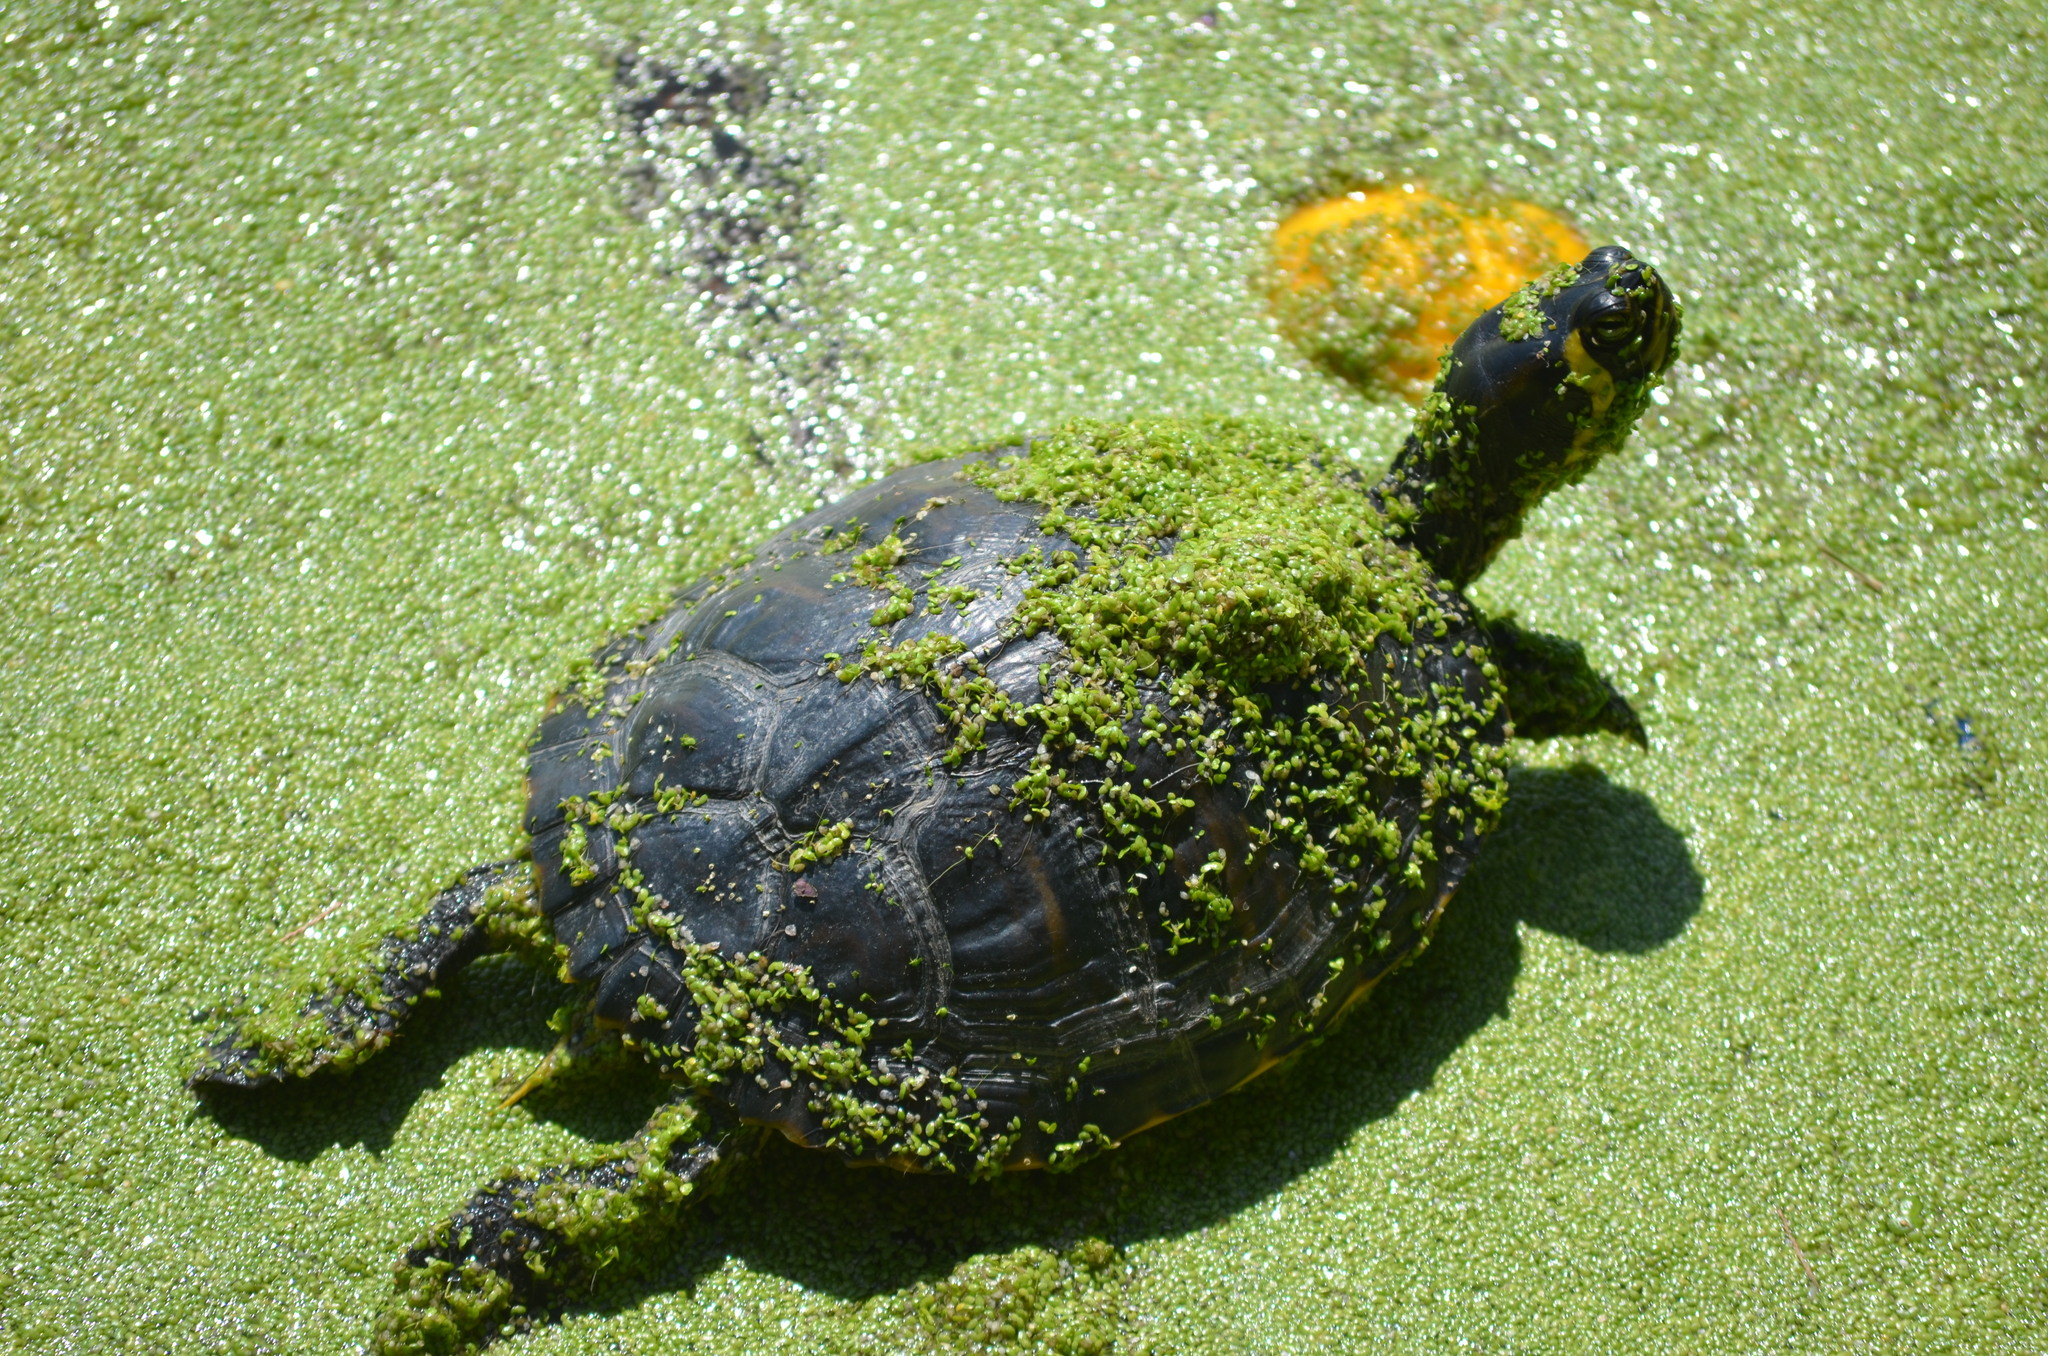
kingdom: Animalia
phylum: Chordata
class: Testudines
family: Emydidae
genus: Trachemys
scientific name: Trachemys scripta
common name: Slider
